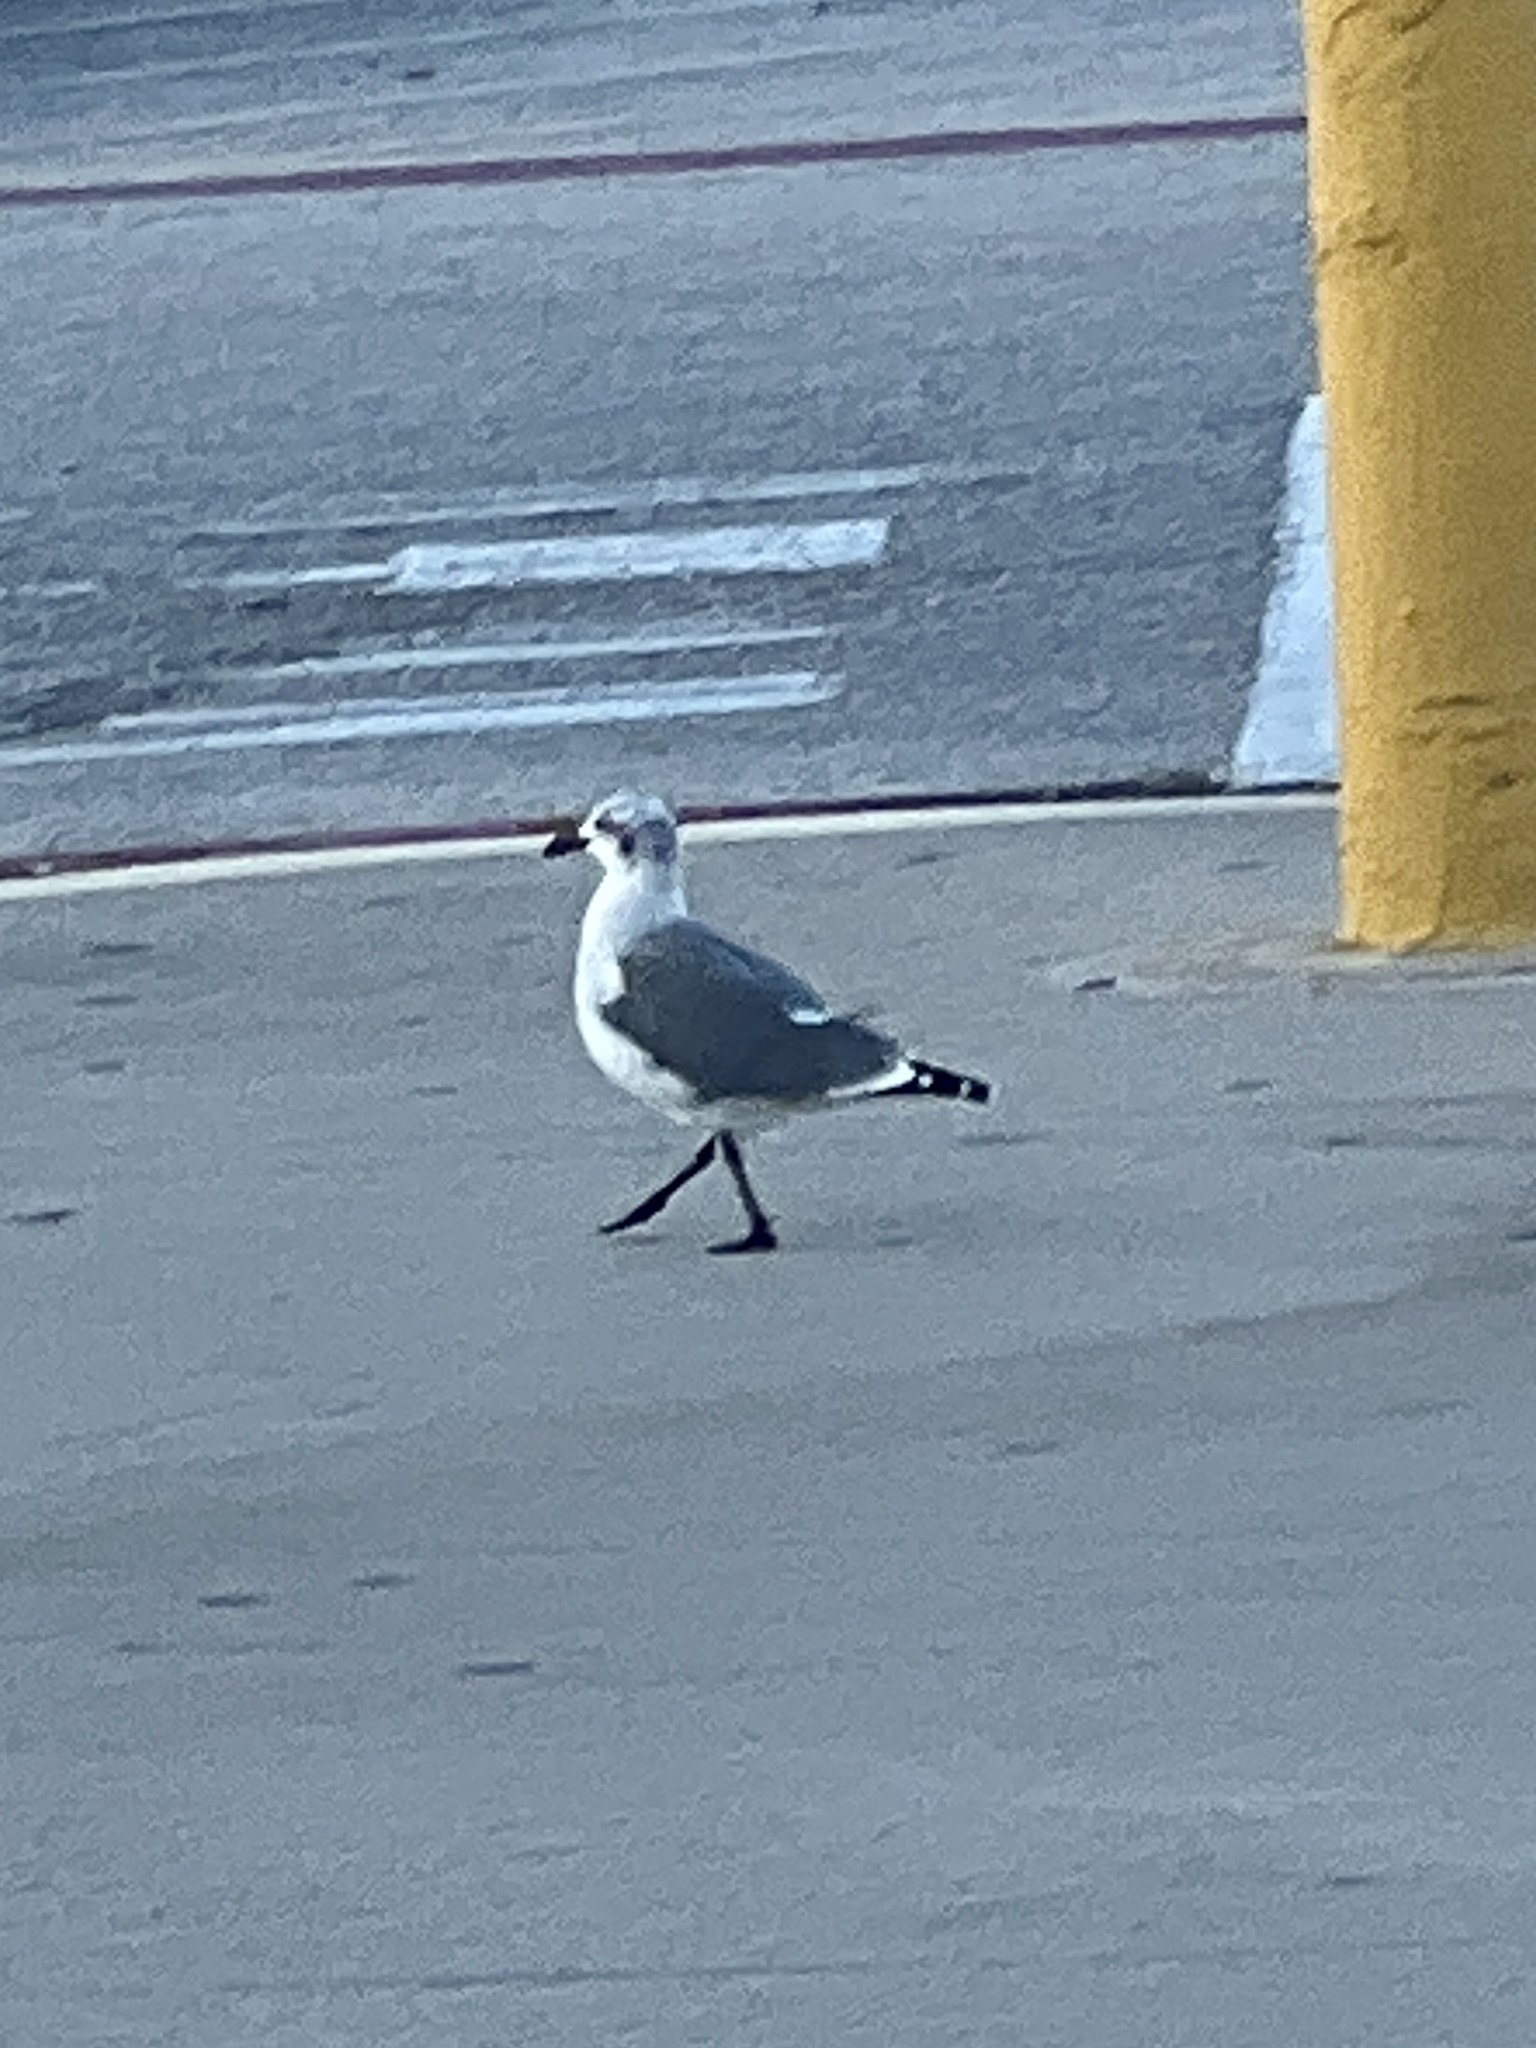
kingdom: Animalia
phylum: Chordata
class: Aves
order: Charadriiformes
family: Laridae
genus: Leucophaeus
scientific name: Leucophaeus atricilla
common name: Laughing gull
